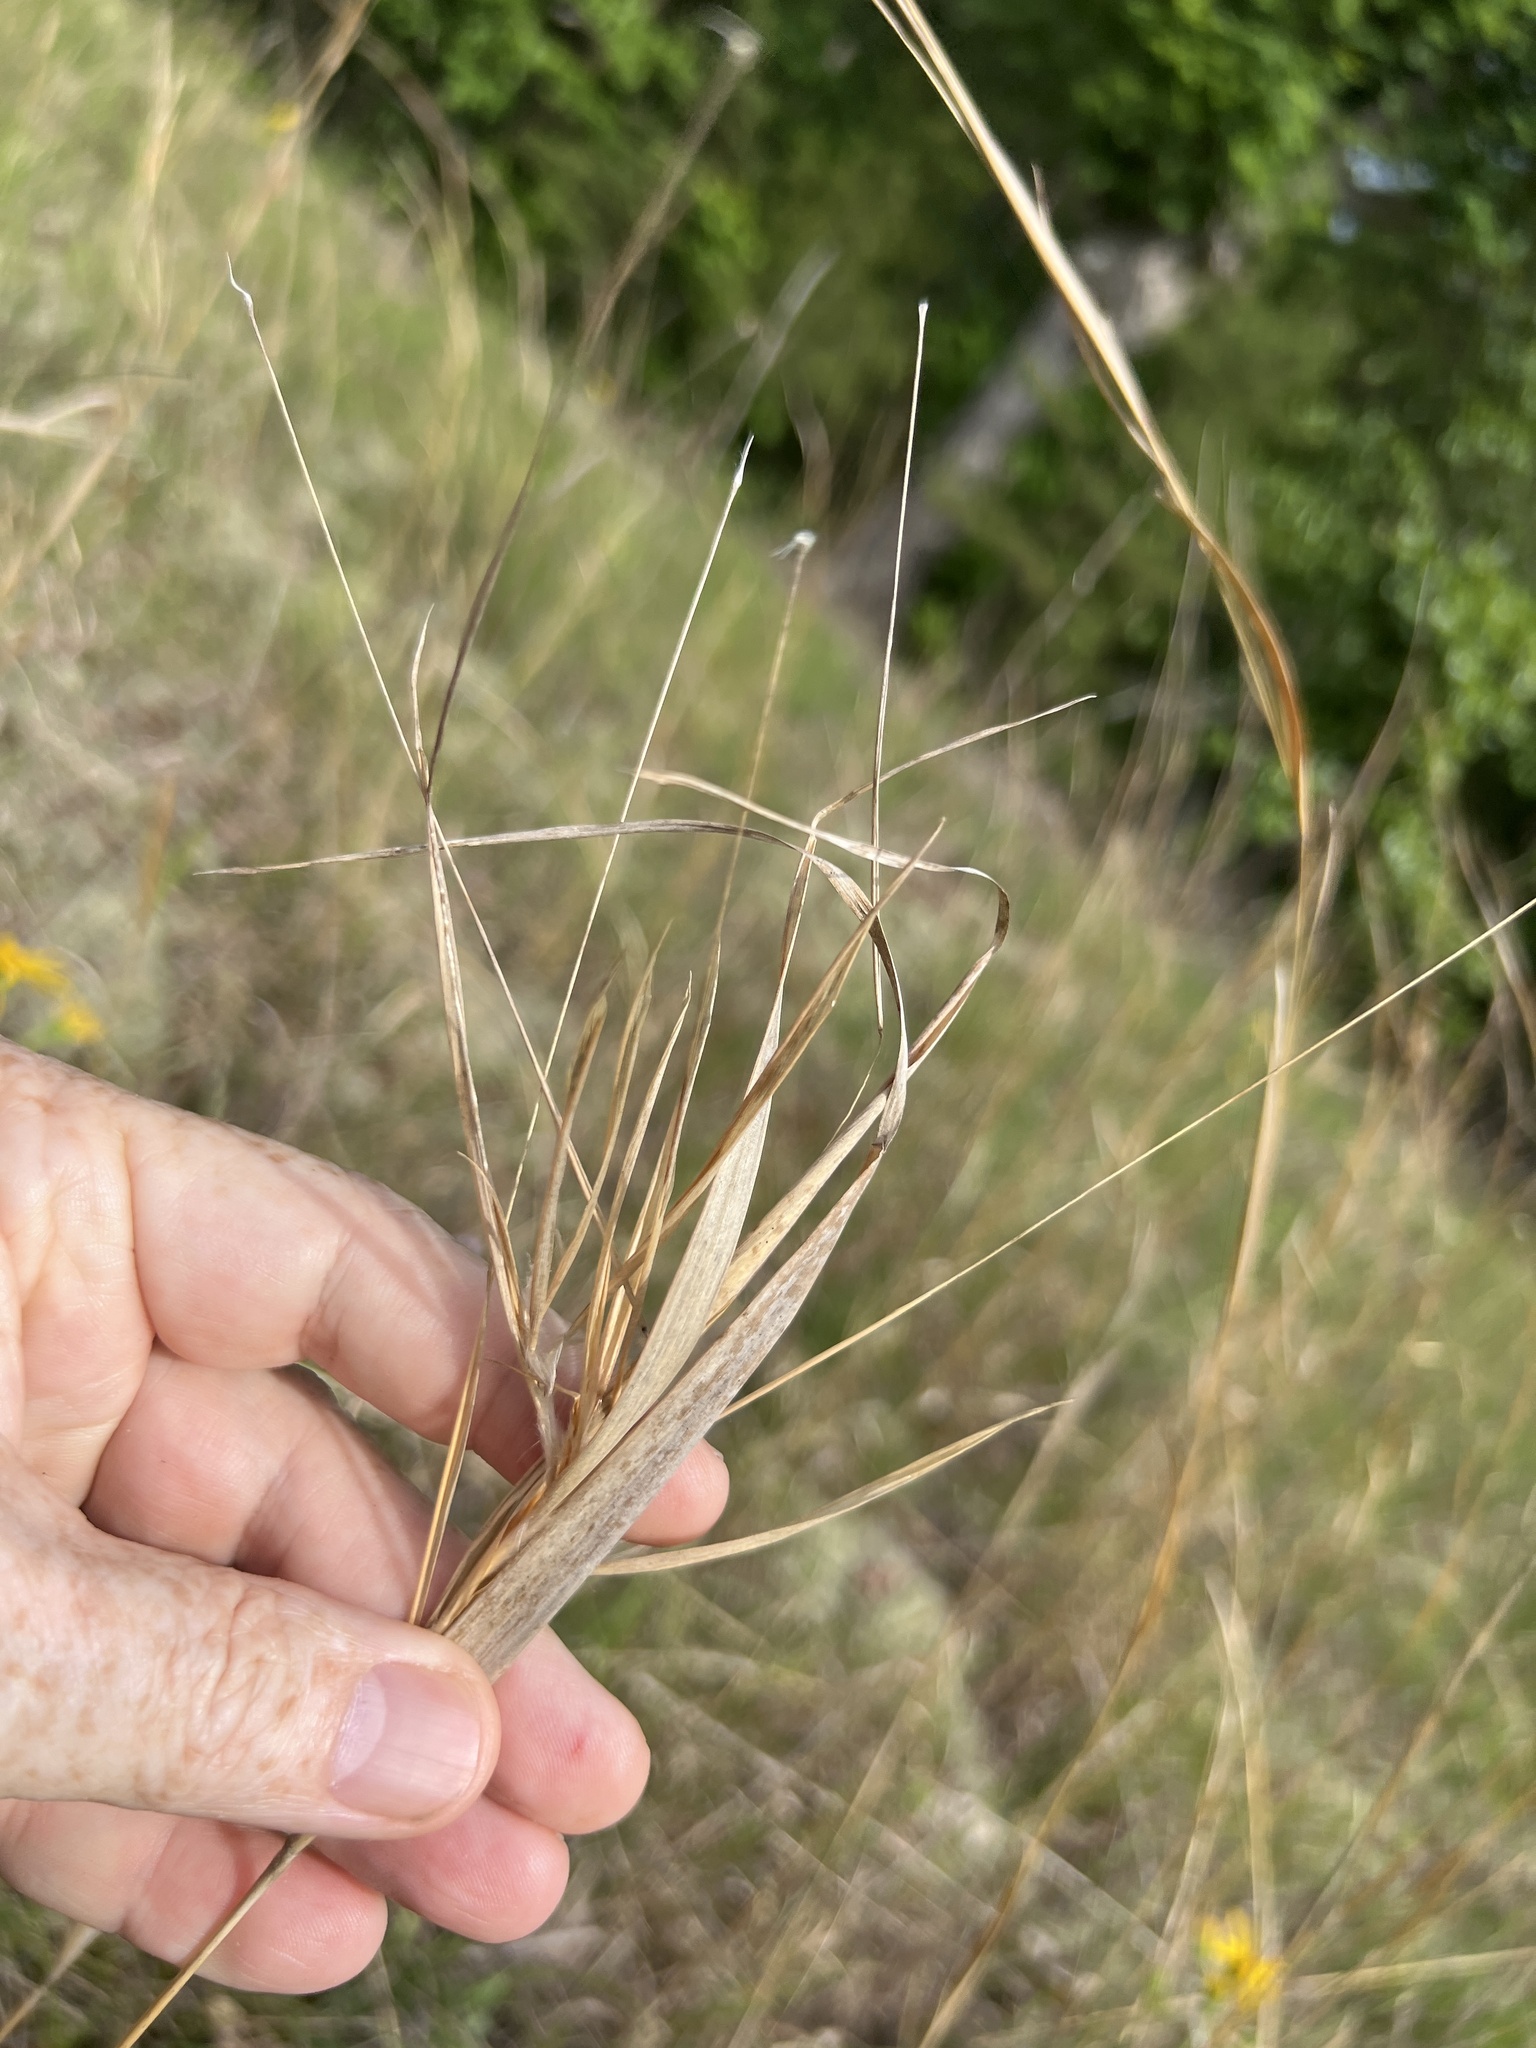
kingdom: Plantae
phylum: Tracheophyta
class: Liliopsida
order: Poales
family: Poaceae
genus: Andropogon
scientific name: Andropogon gyrans
